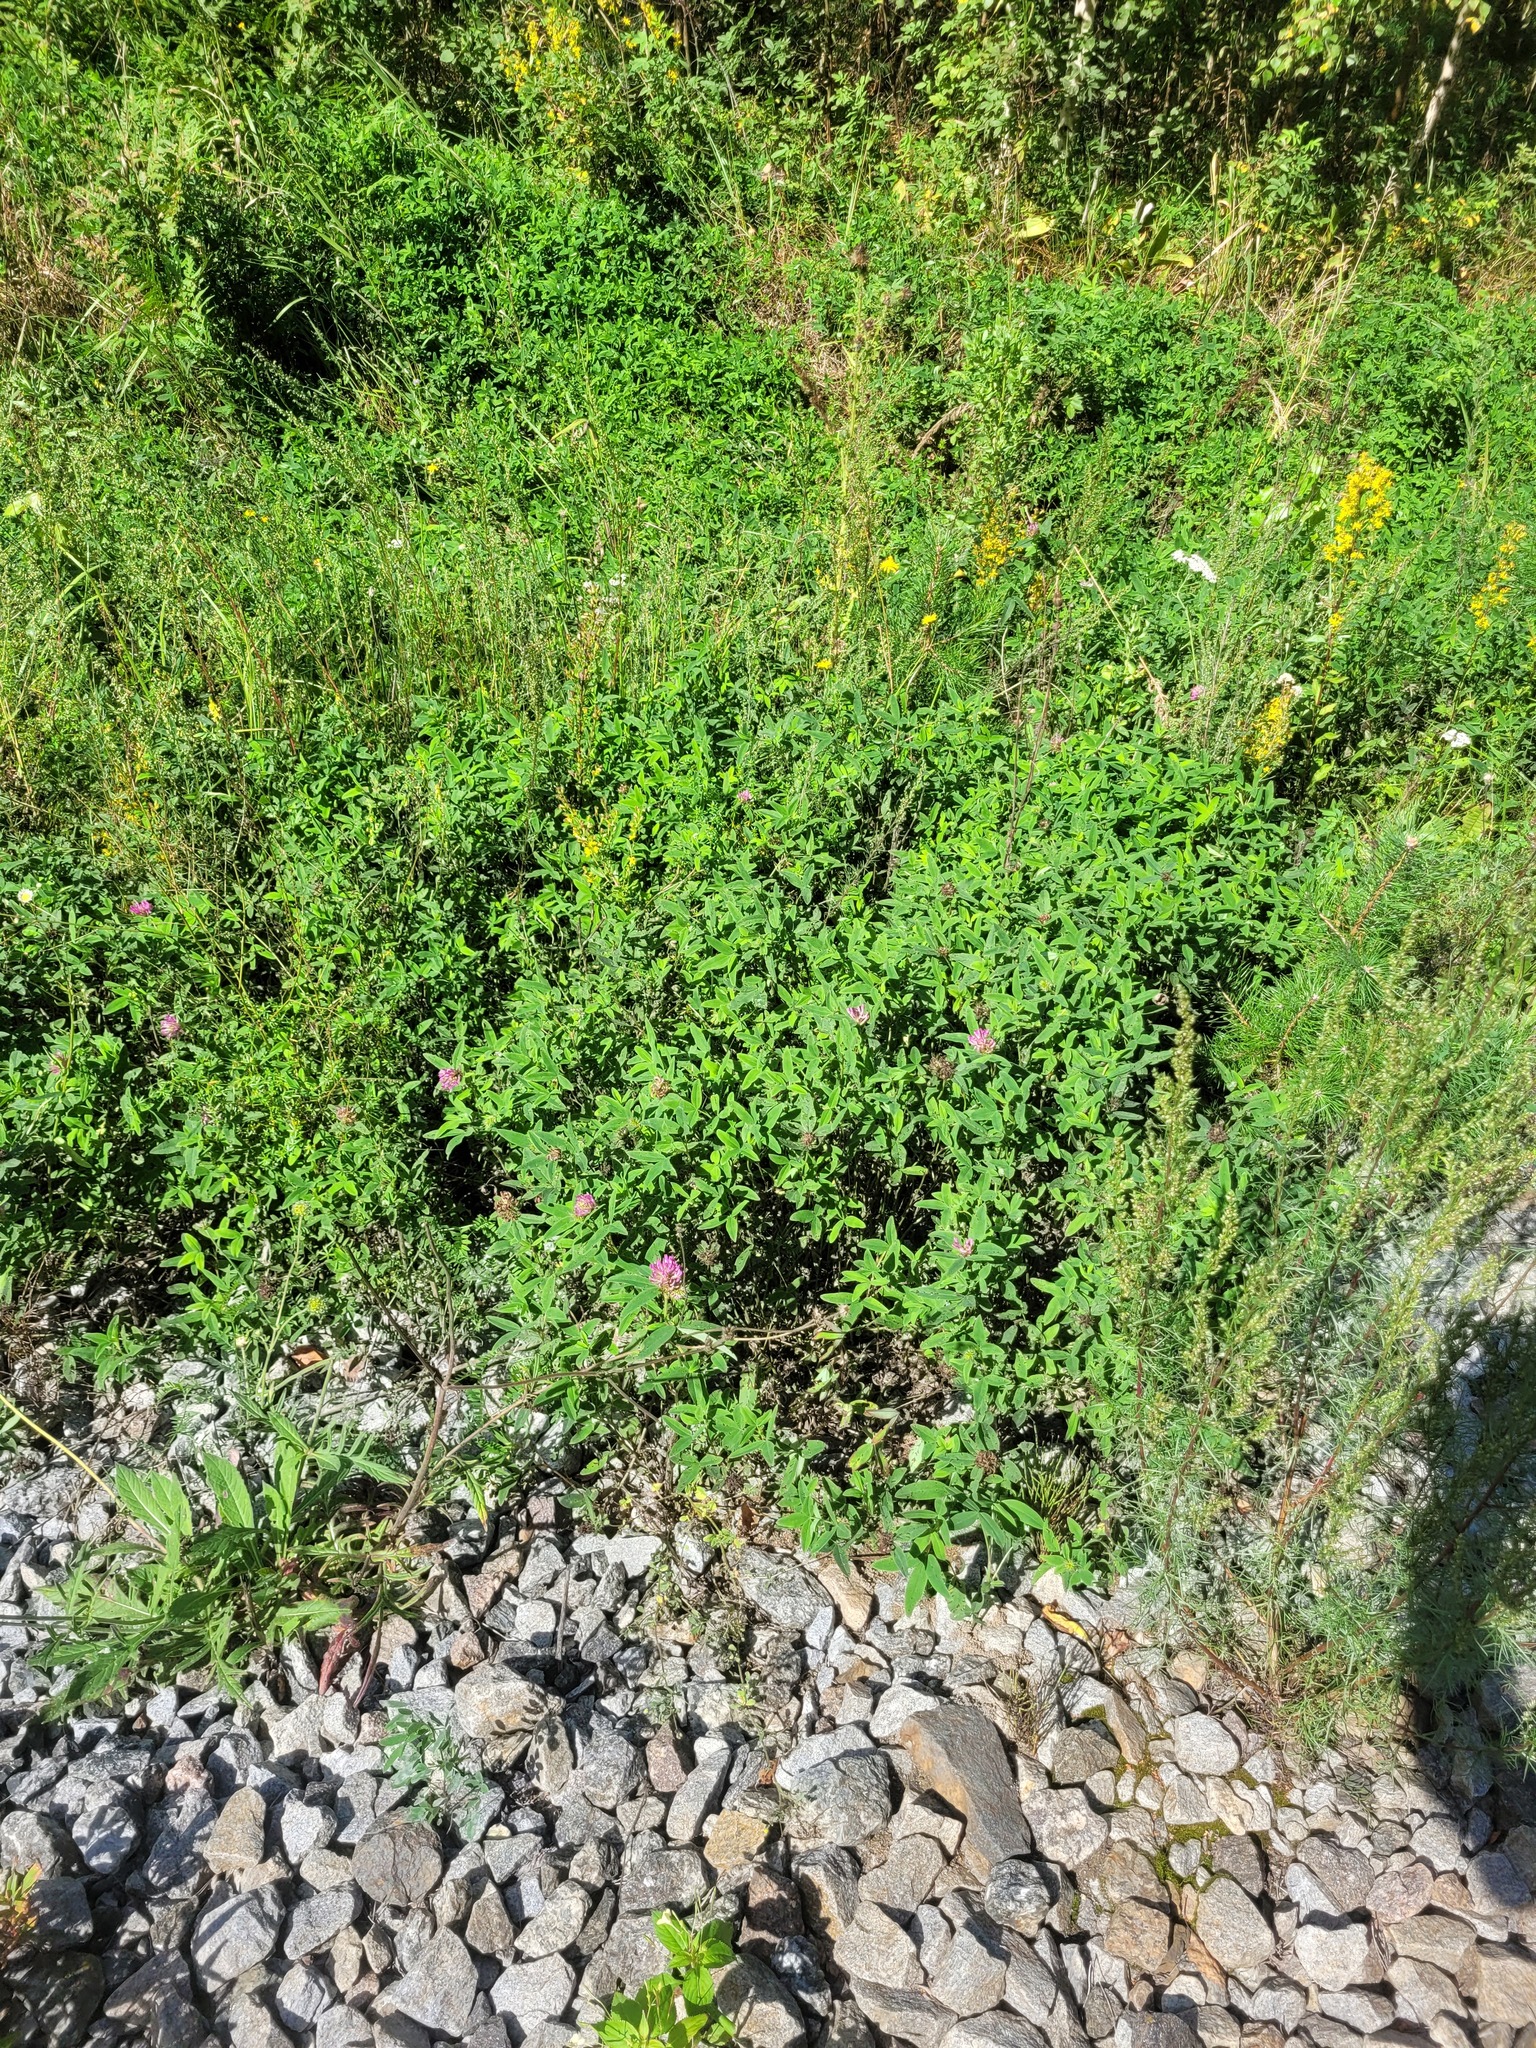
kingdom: Plantae
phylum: Tracheophyta
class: Magnoliopsida
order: Fabales
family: Fabaceae
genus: Trifolium
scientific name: Trifolium medium
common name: Zigzag clover
